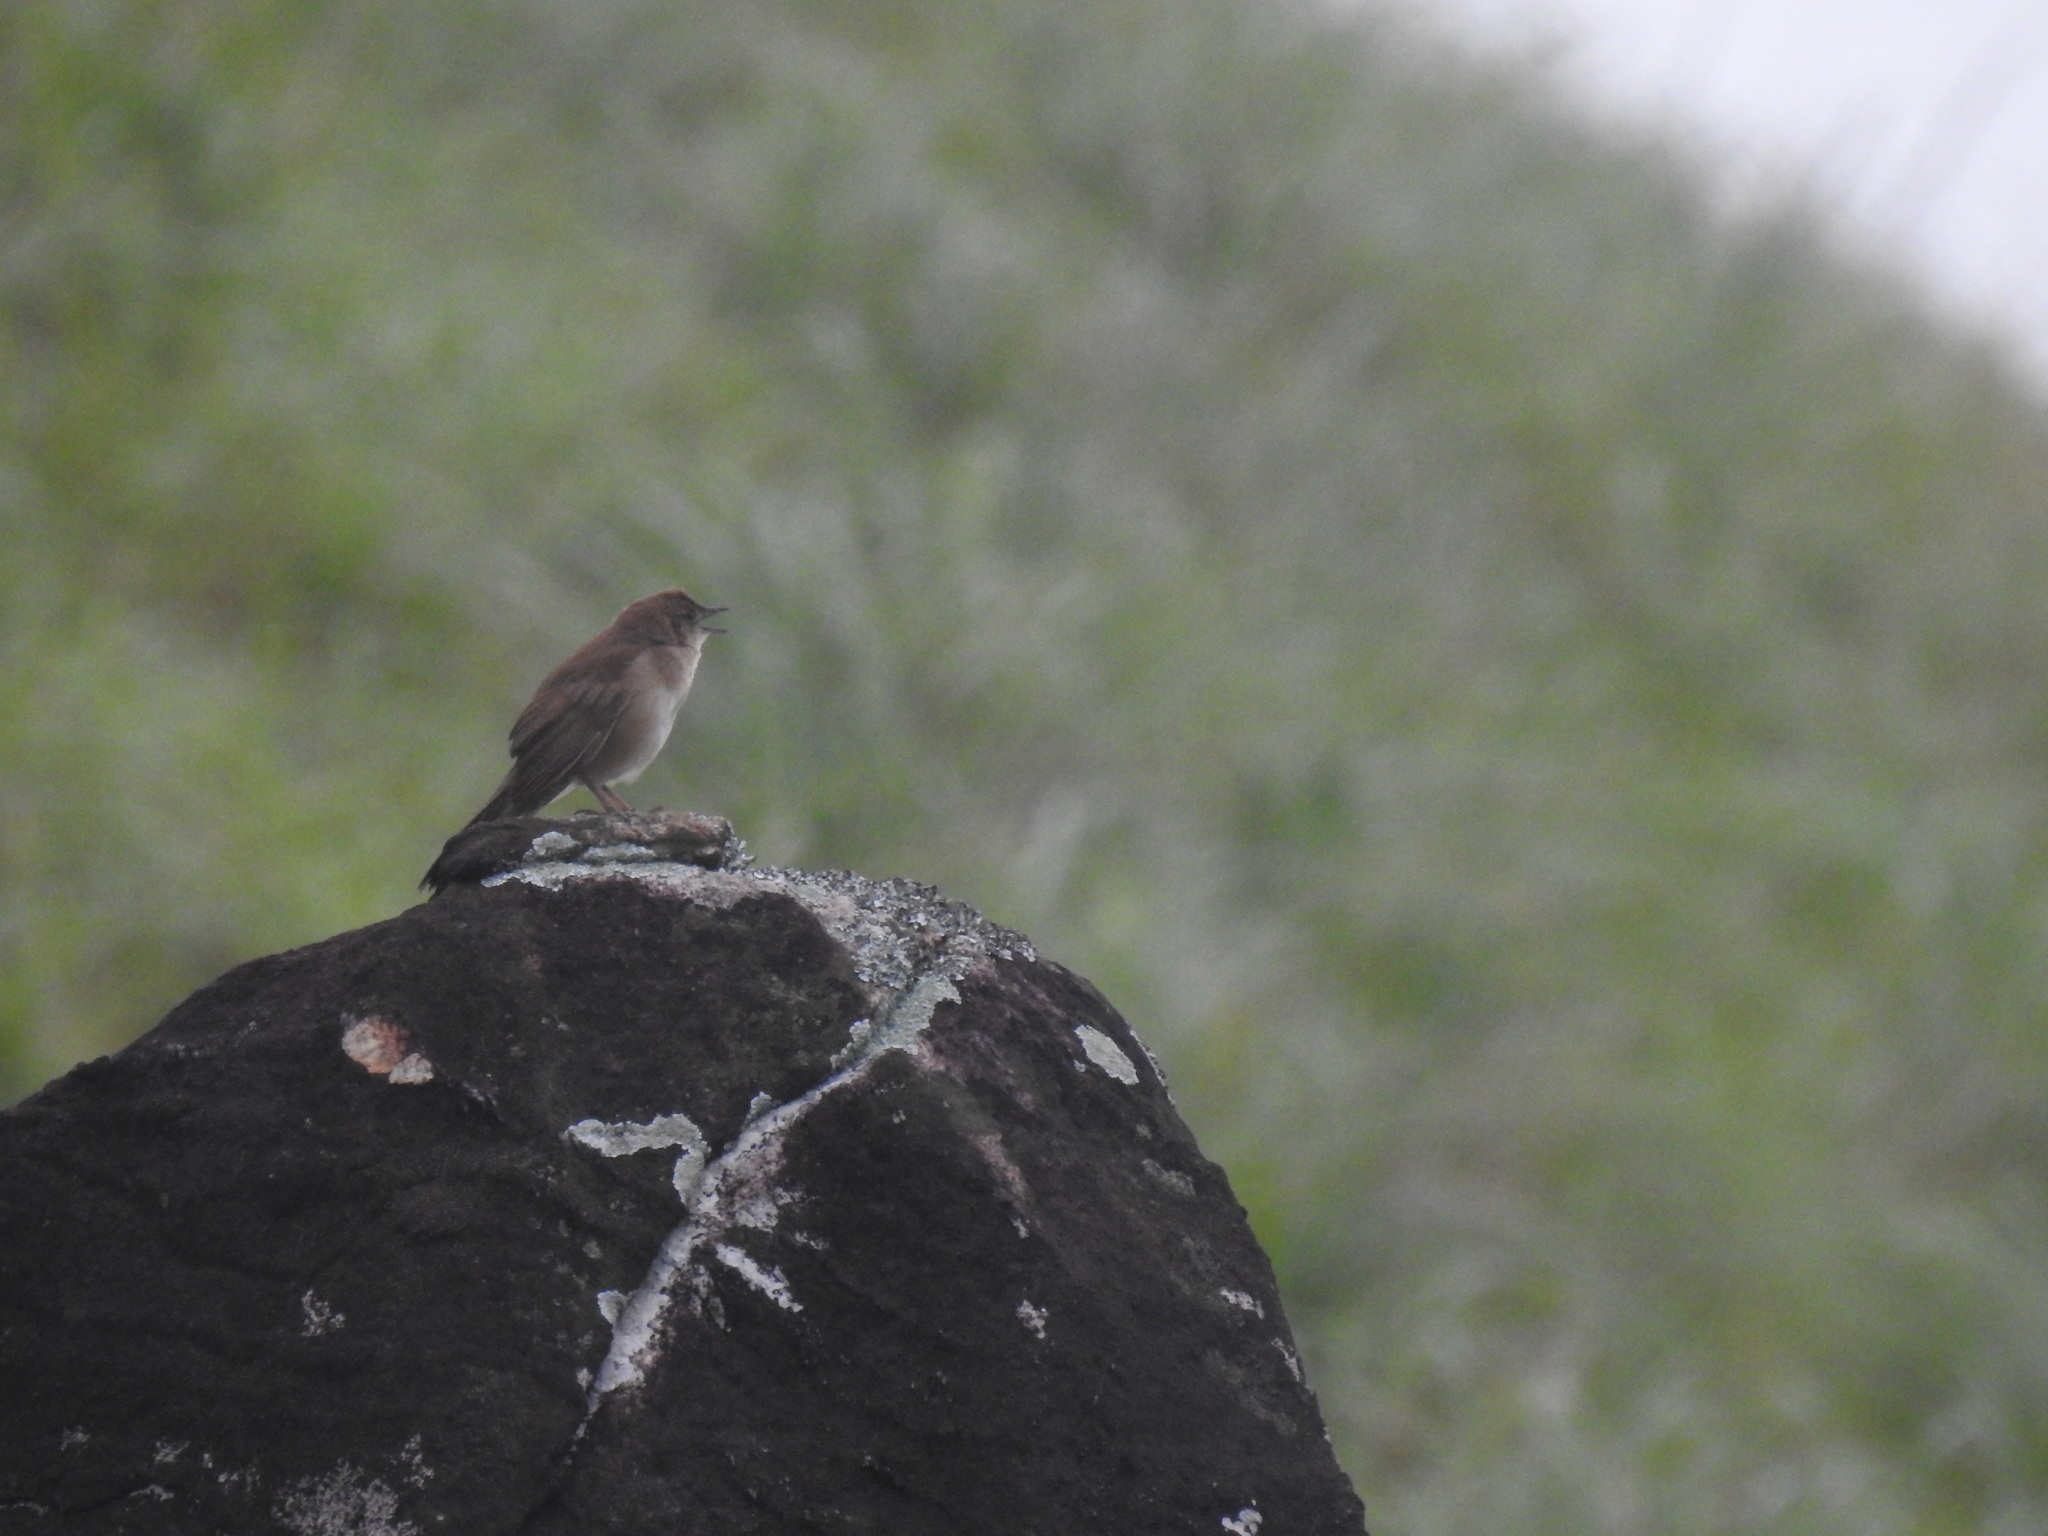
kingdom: Animalia
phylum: Chordata
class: Aves
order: Passeriformes
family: Locustellidae
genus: Schoenicola
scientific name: Schoenicola platyurus
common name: Broad-tailed grassbird
